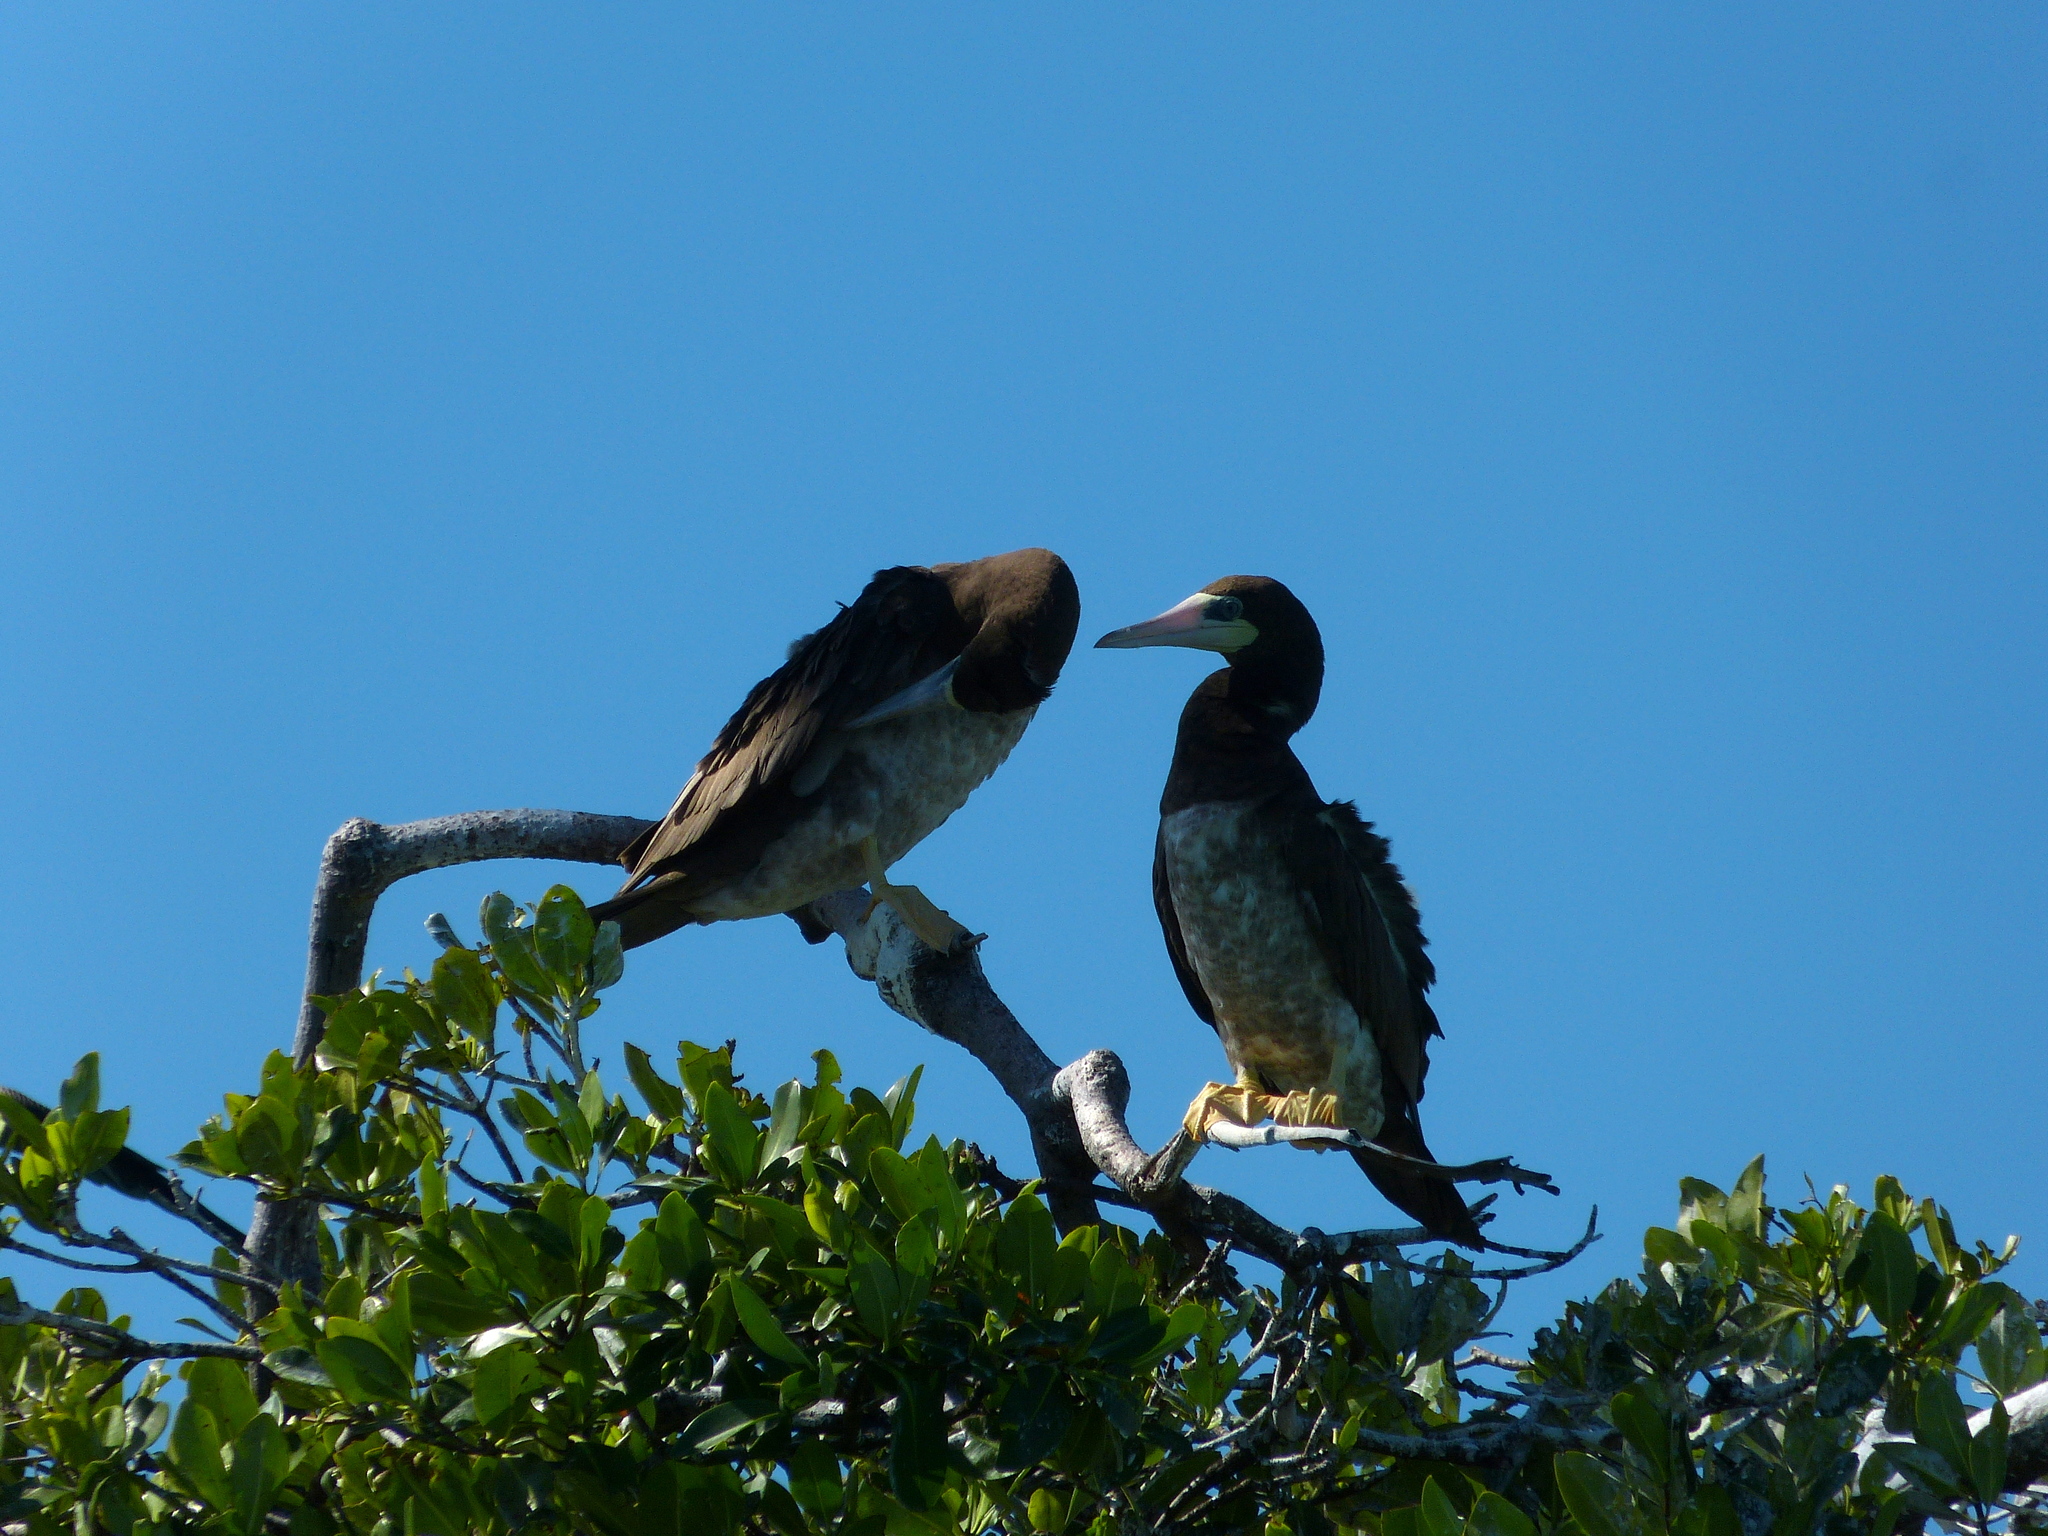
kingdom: Animalia
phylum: Chordata
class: Aves
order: Suliformes
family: Sulidae
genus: Sula
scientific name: Sula leucogaster
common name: Brown booby
